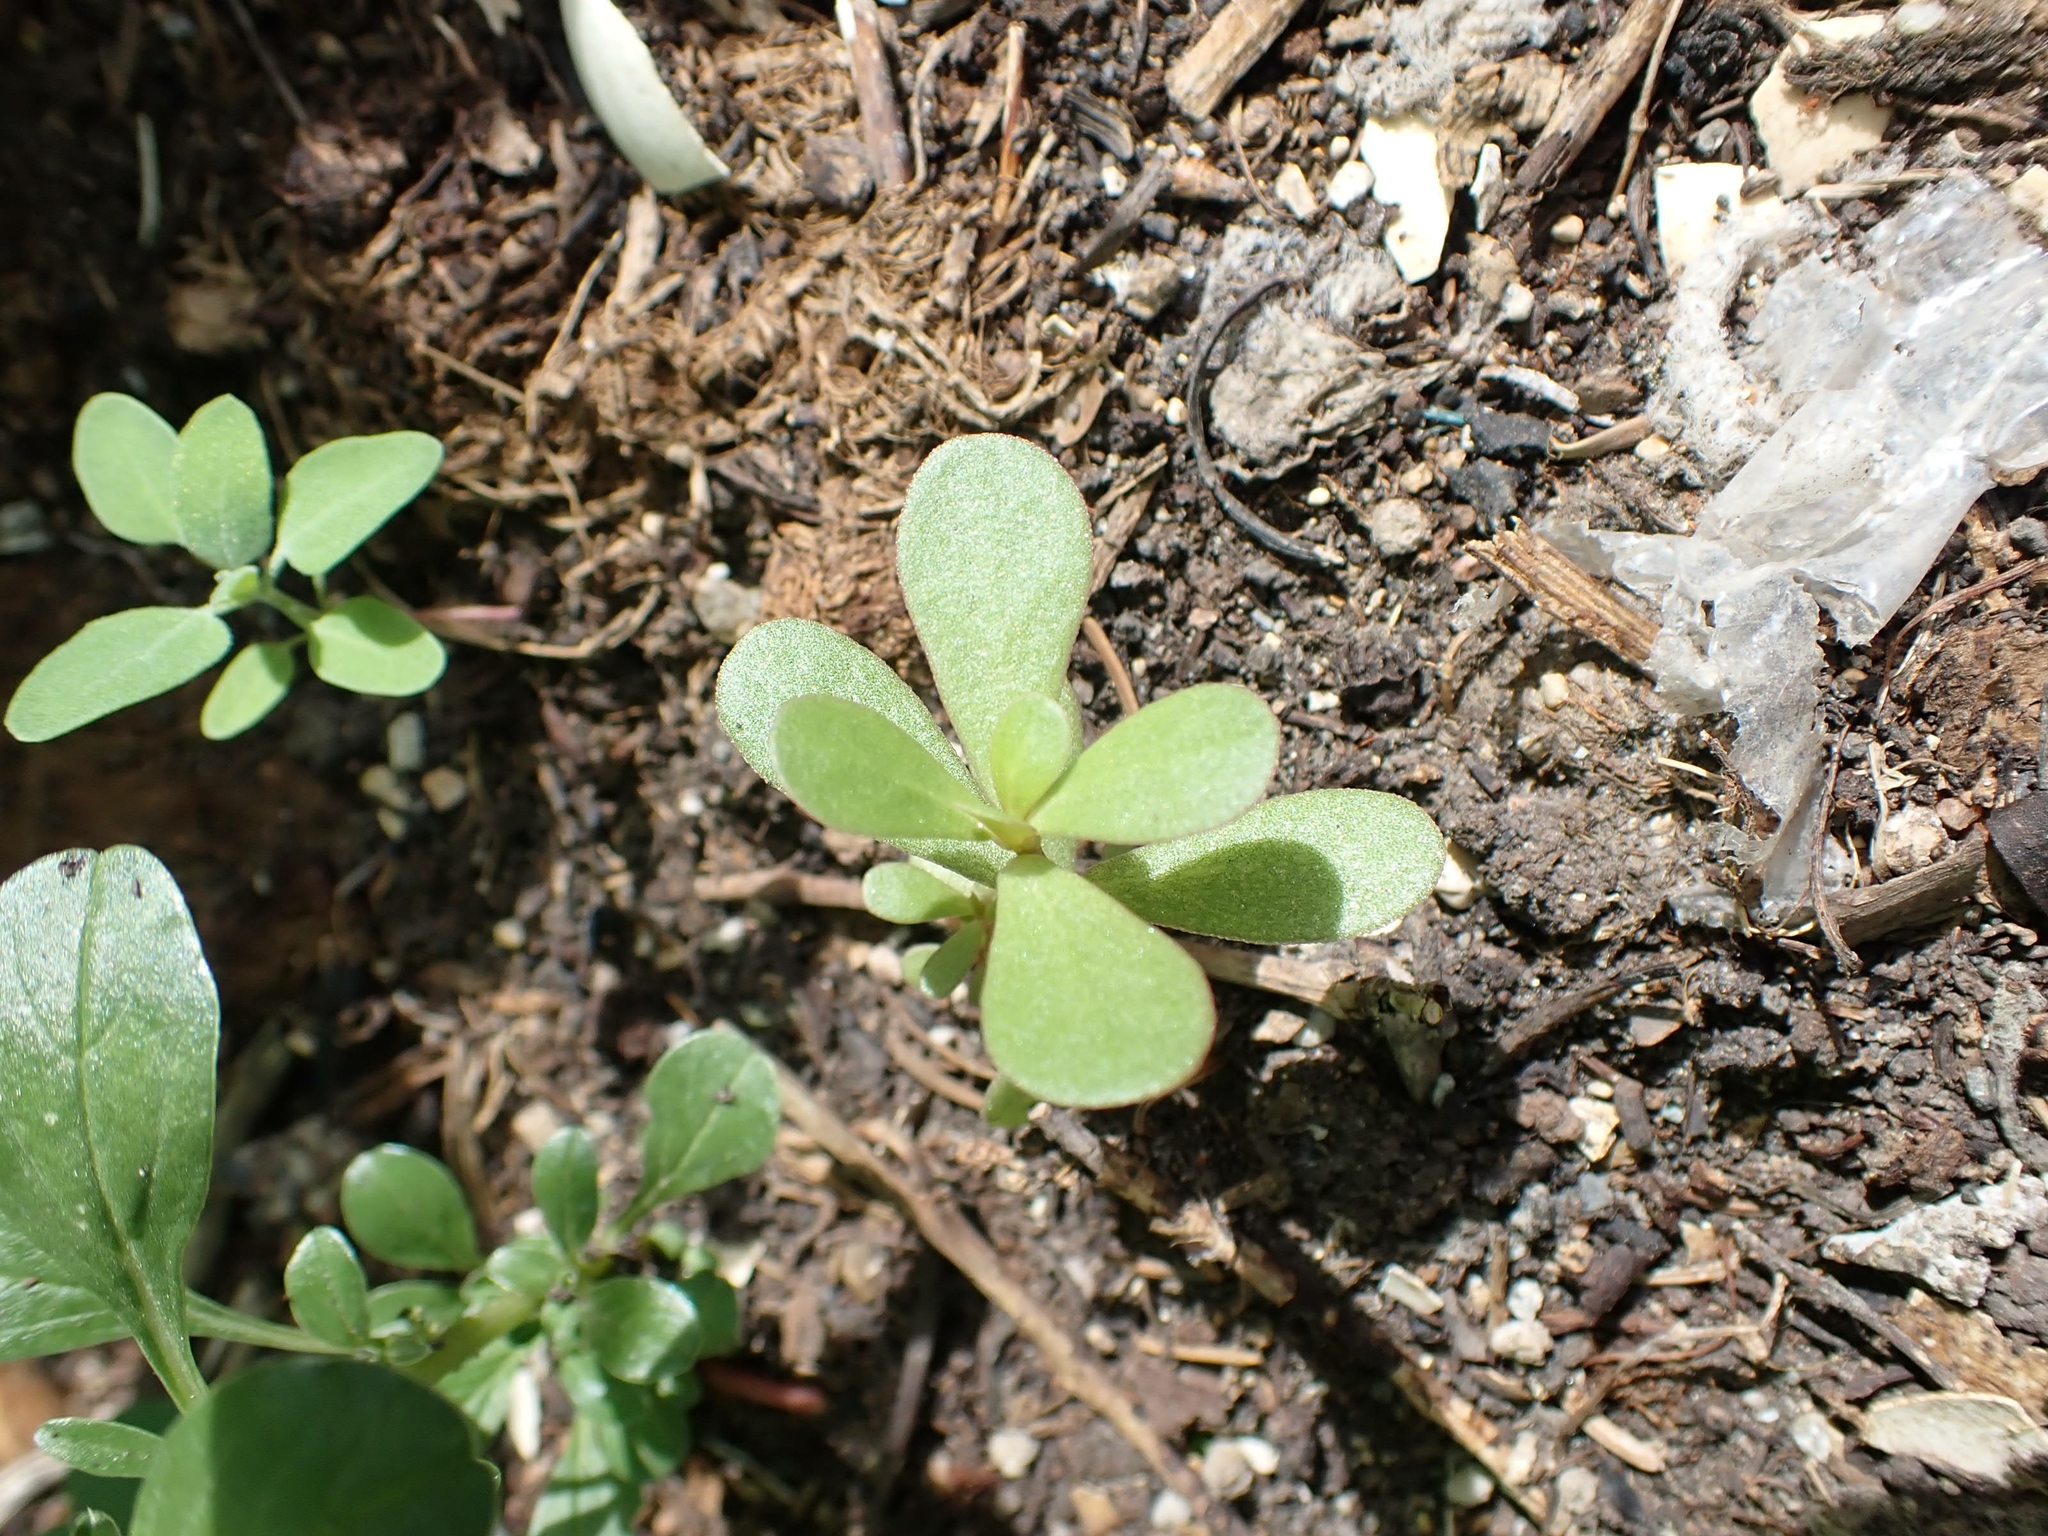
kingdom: Plantae
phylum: Tracheophyta
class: Magnoliopsida
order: Caryophyllales
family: Portulacaceae
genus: Portulaca
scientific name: Portulaca oleracea
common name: Common purslane
